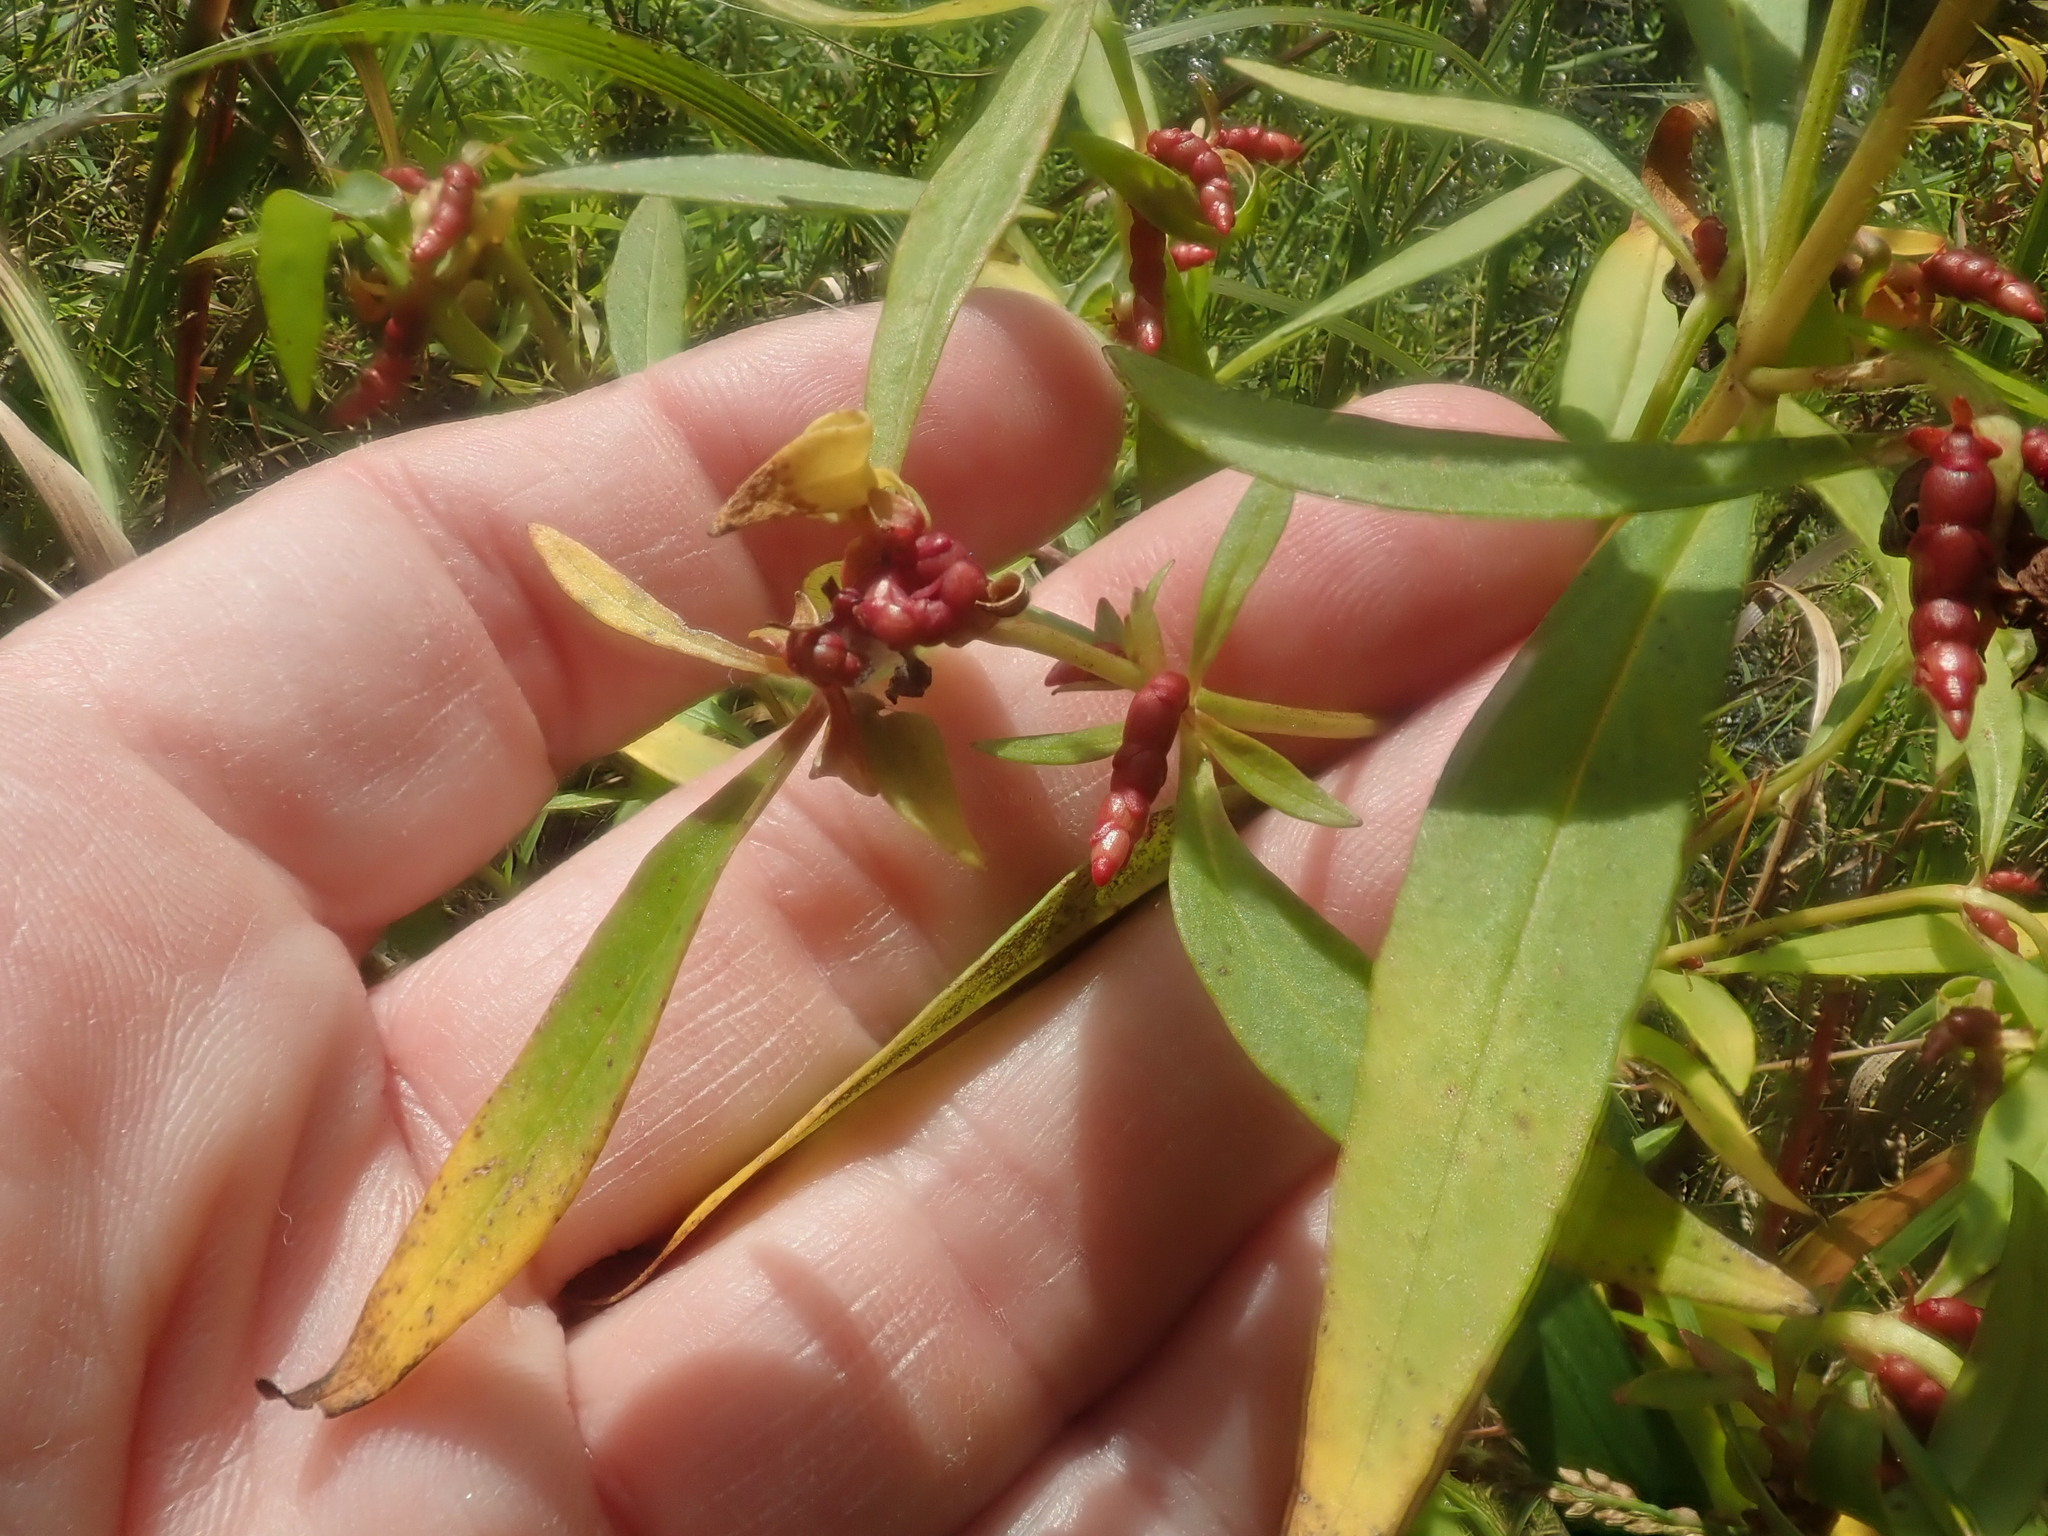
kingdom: Plantae
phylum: Tracheophyta
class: Magnoliopsida
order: Ericales
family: Primulaceae
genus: Lysimachia
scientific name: Lysimachia terrestris
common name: Lake loosestrife
